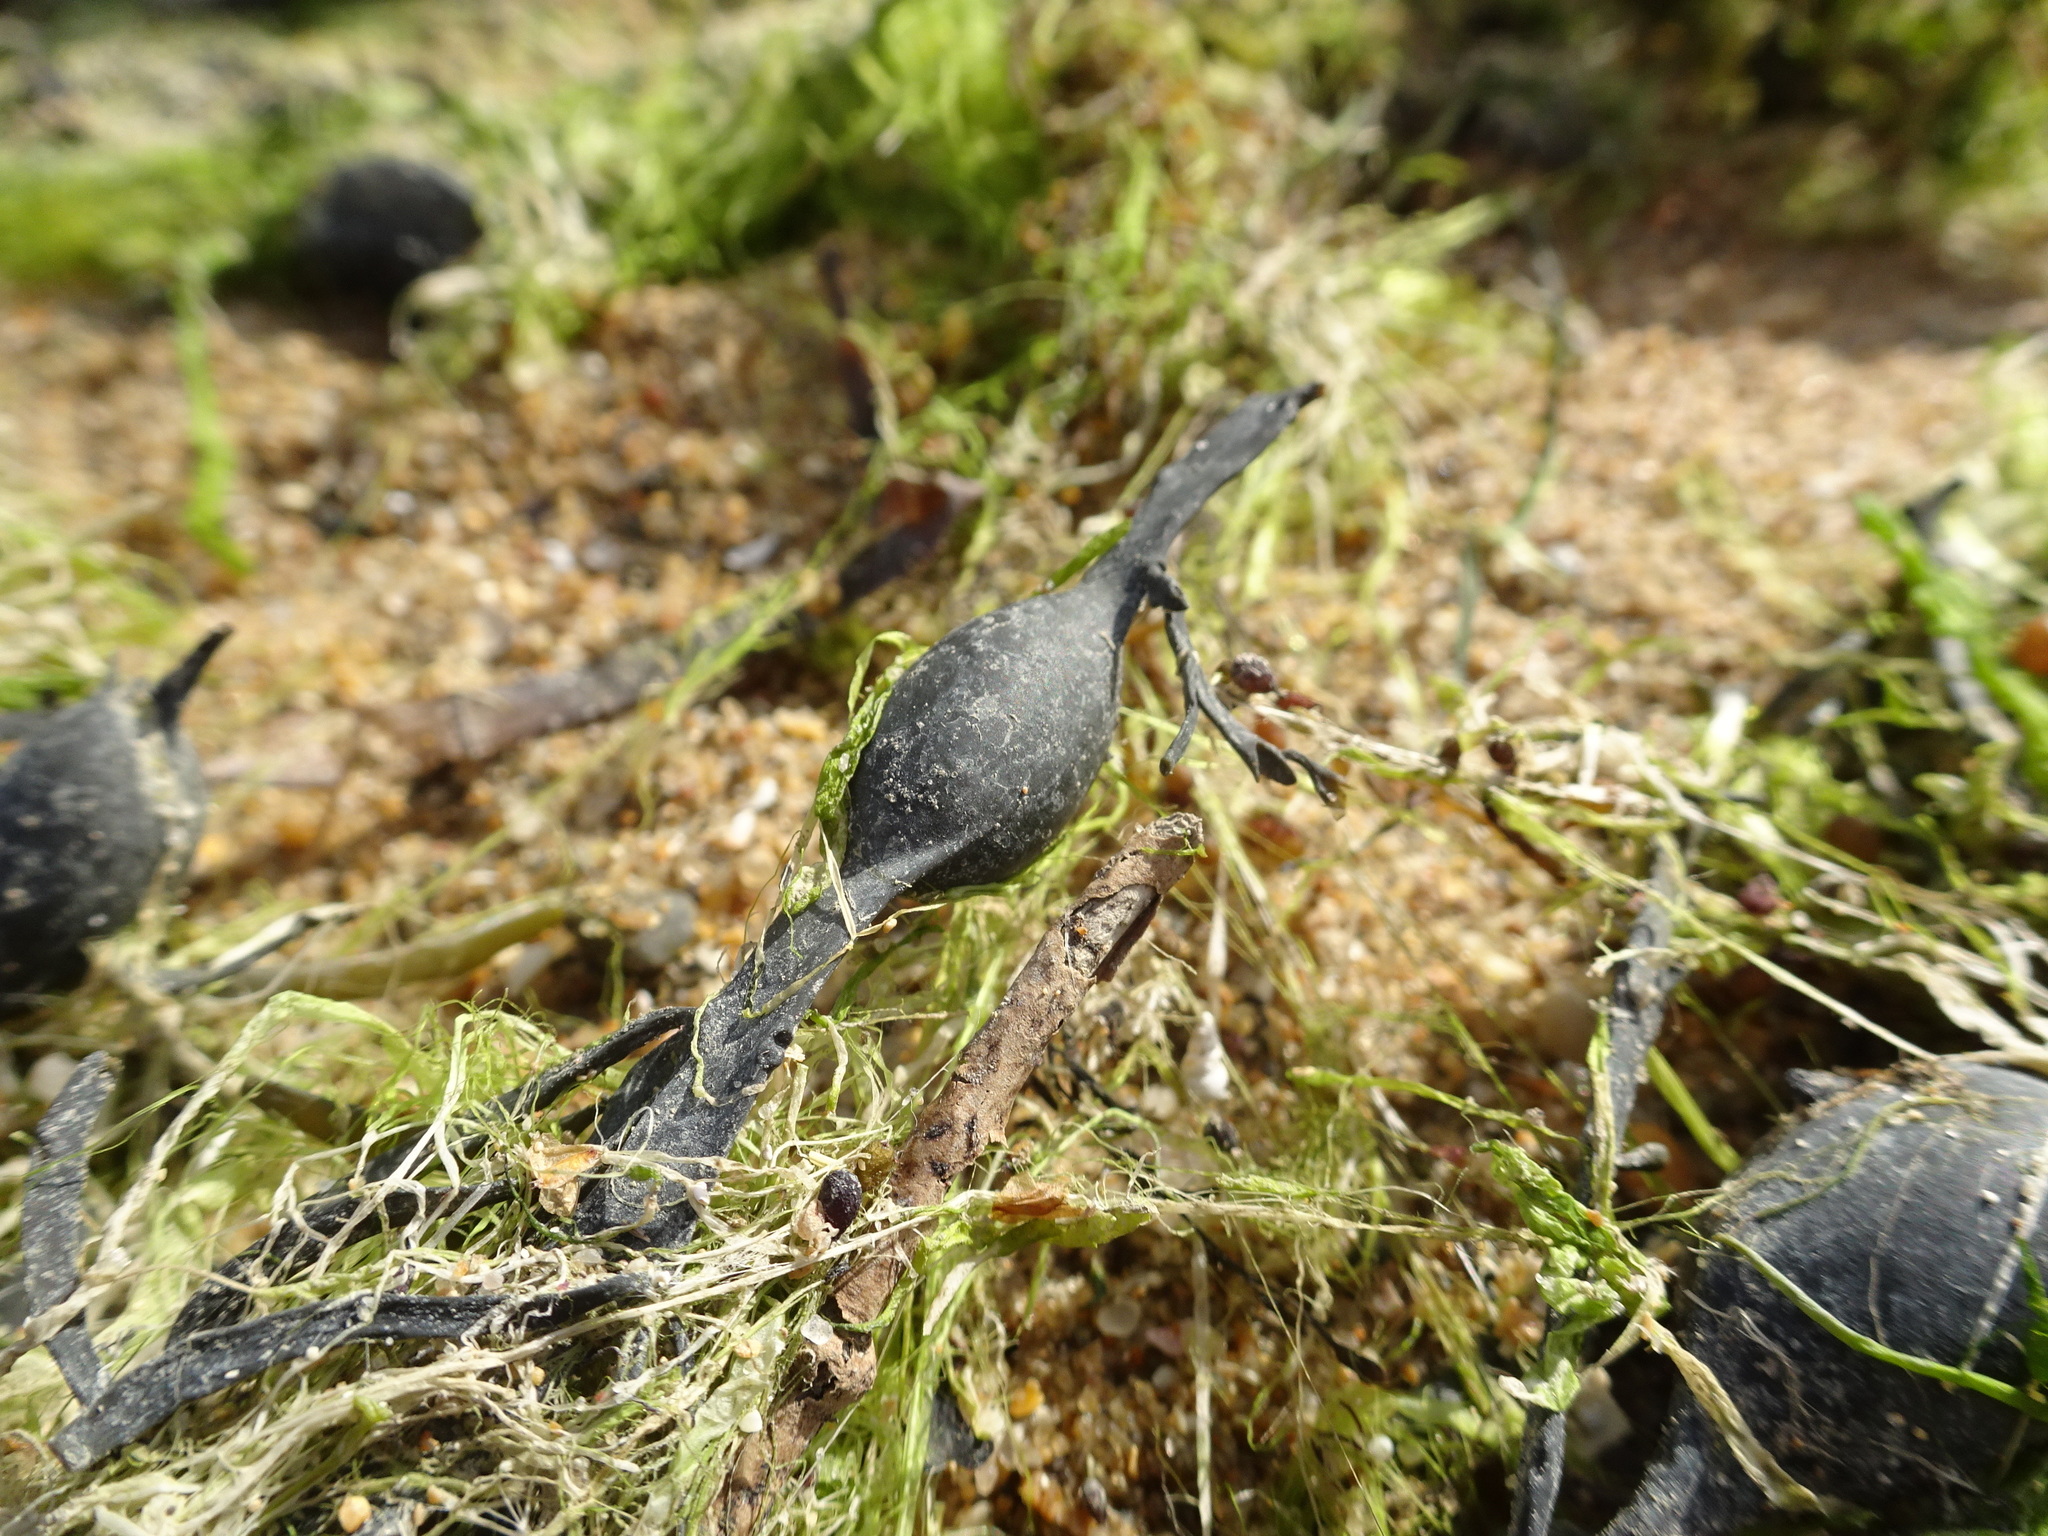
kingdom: Chromista
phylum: Ochrophyta
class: Phaeophyceae
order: Fucales
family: Fucaceae
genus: Ascophyllum
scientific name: Ascophyllum nodosum
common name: Knotted wrack
